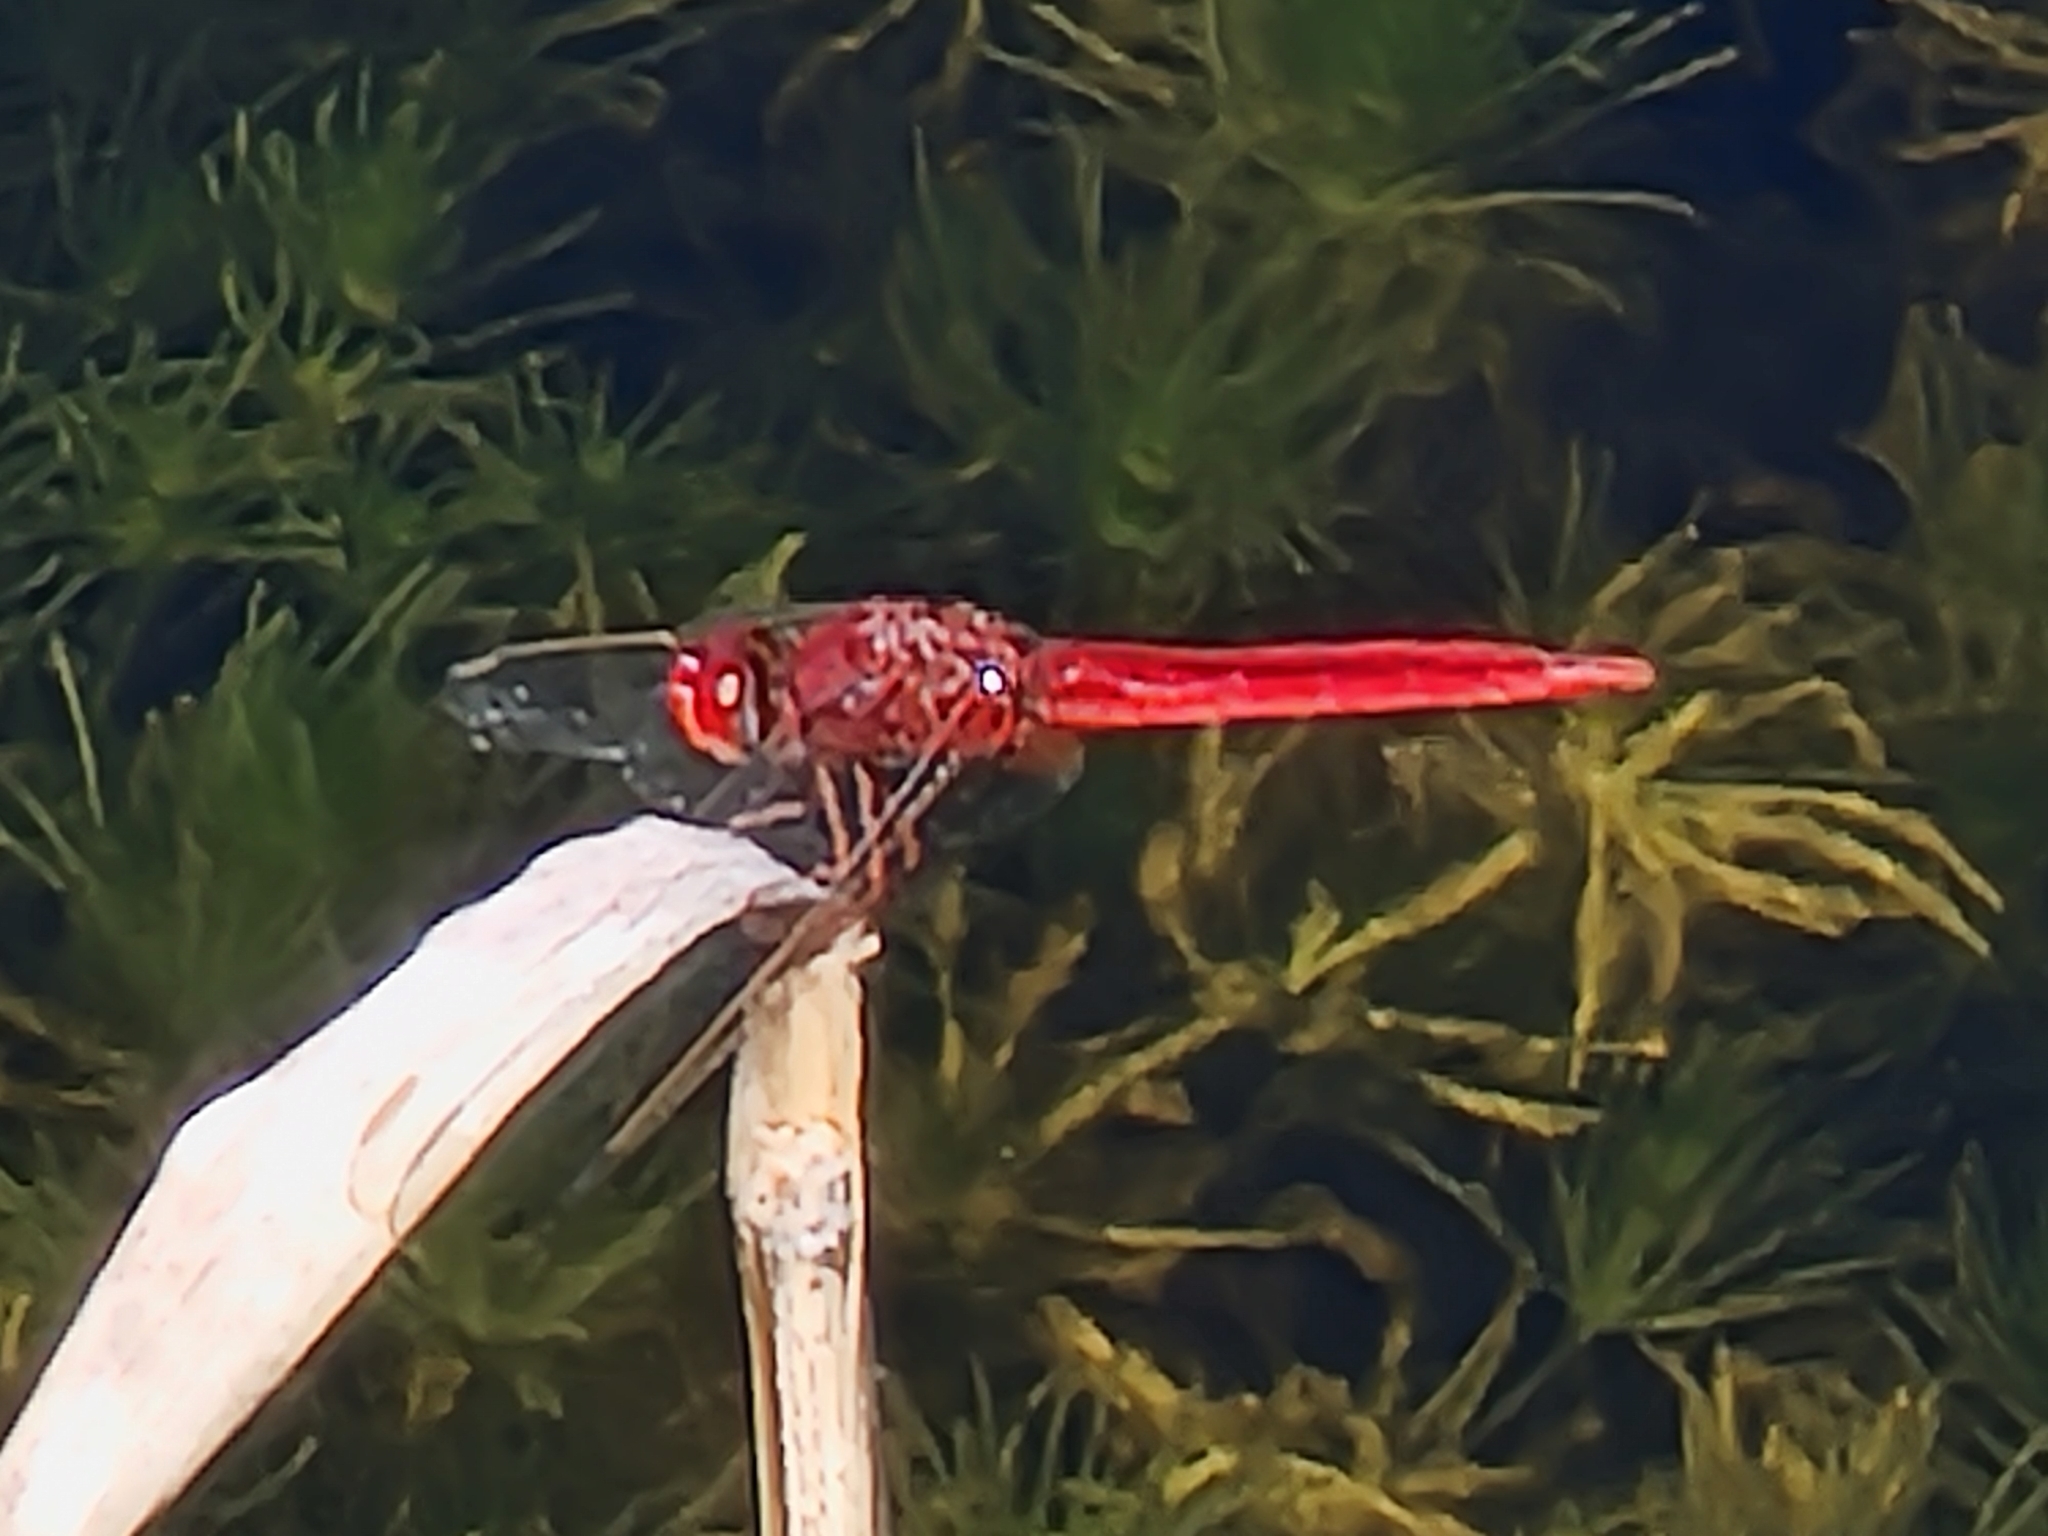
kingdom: Animalia
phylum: Arthropoda
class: Insecta
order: Odonata
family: Libellulidae
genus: Crocothemis
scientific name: Crocothemis servilia
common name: Scarlet skimmer
